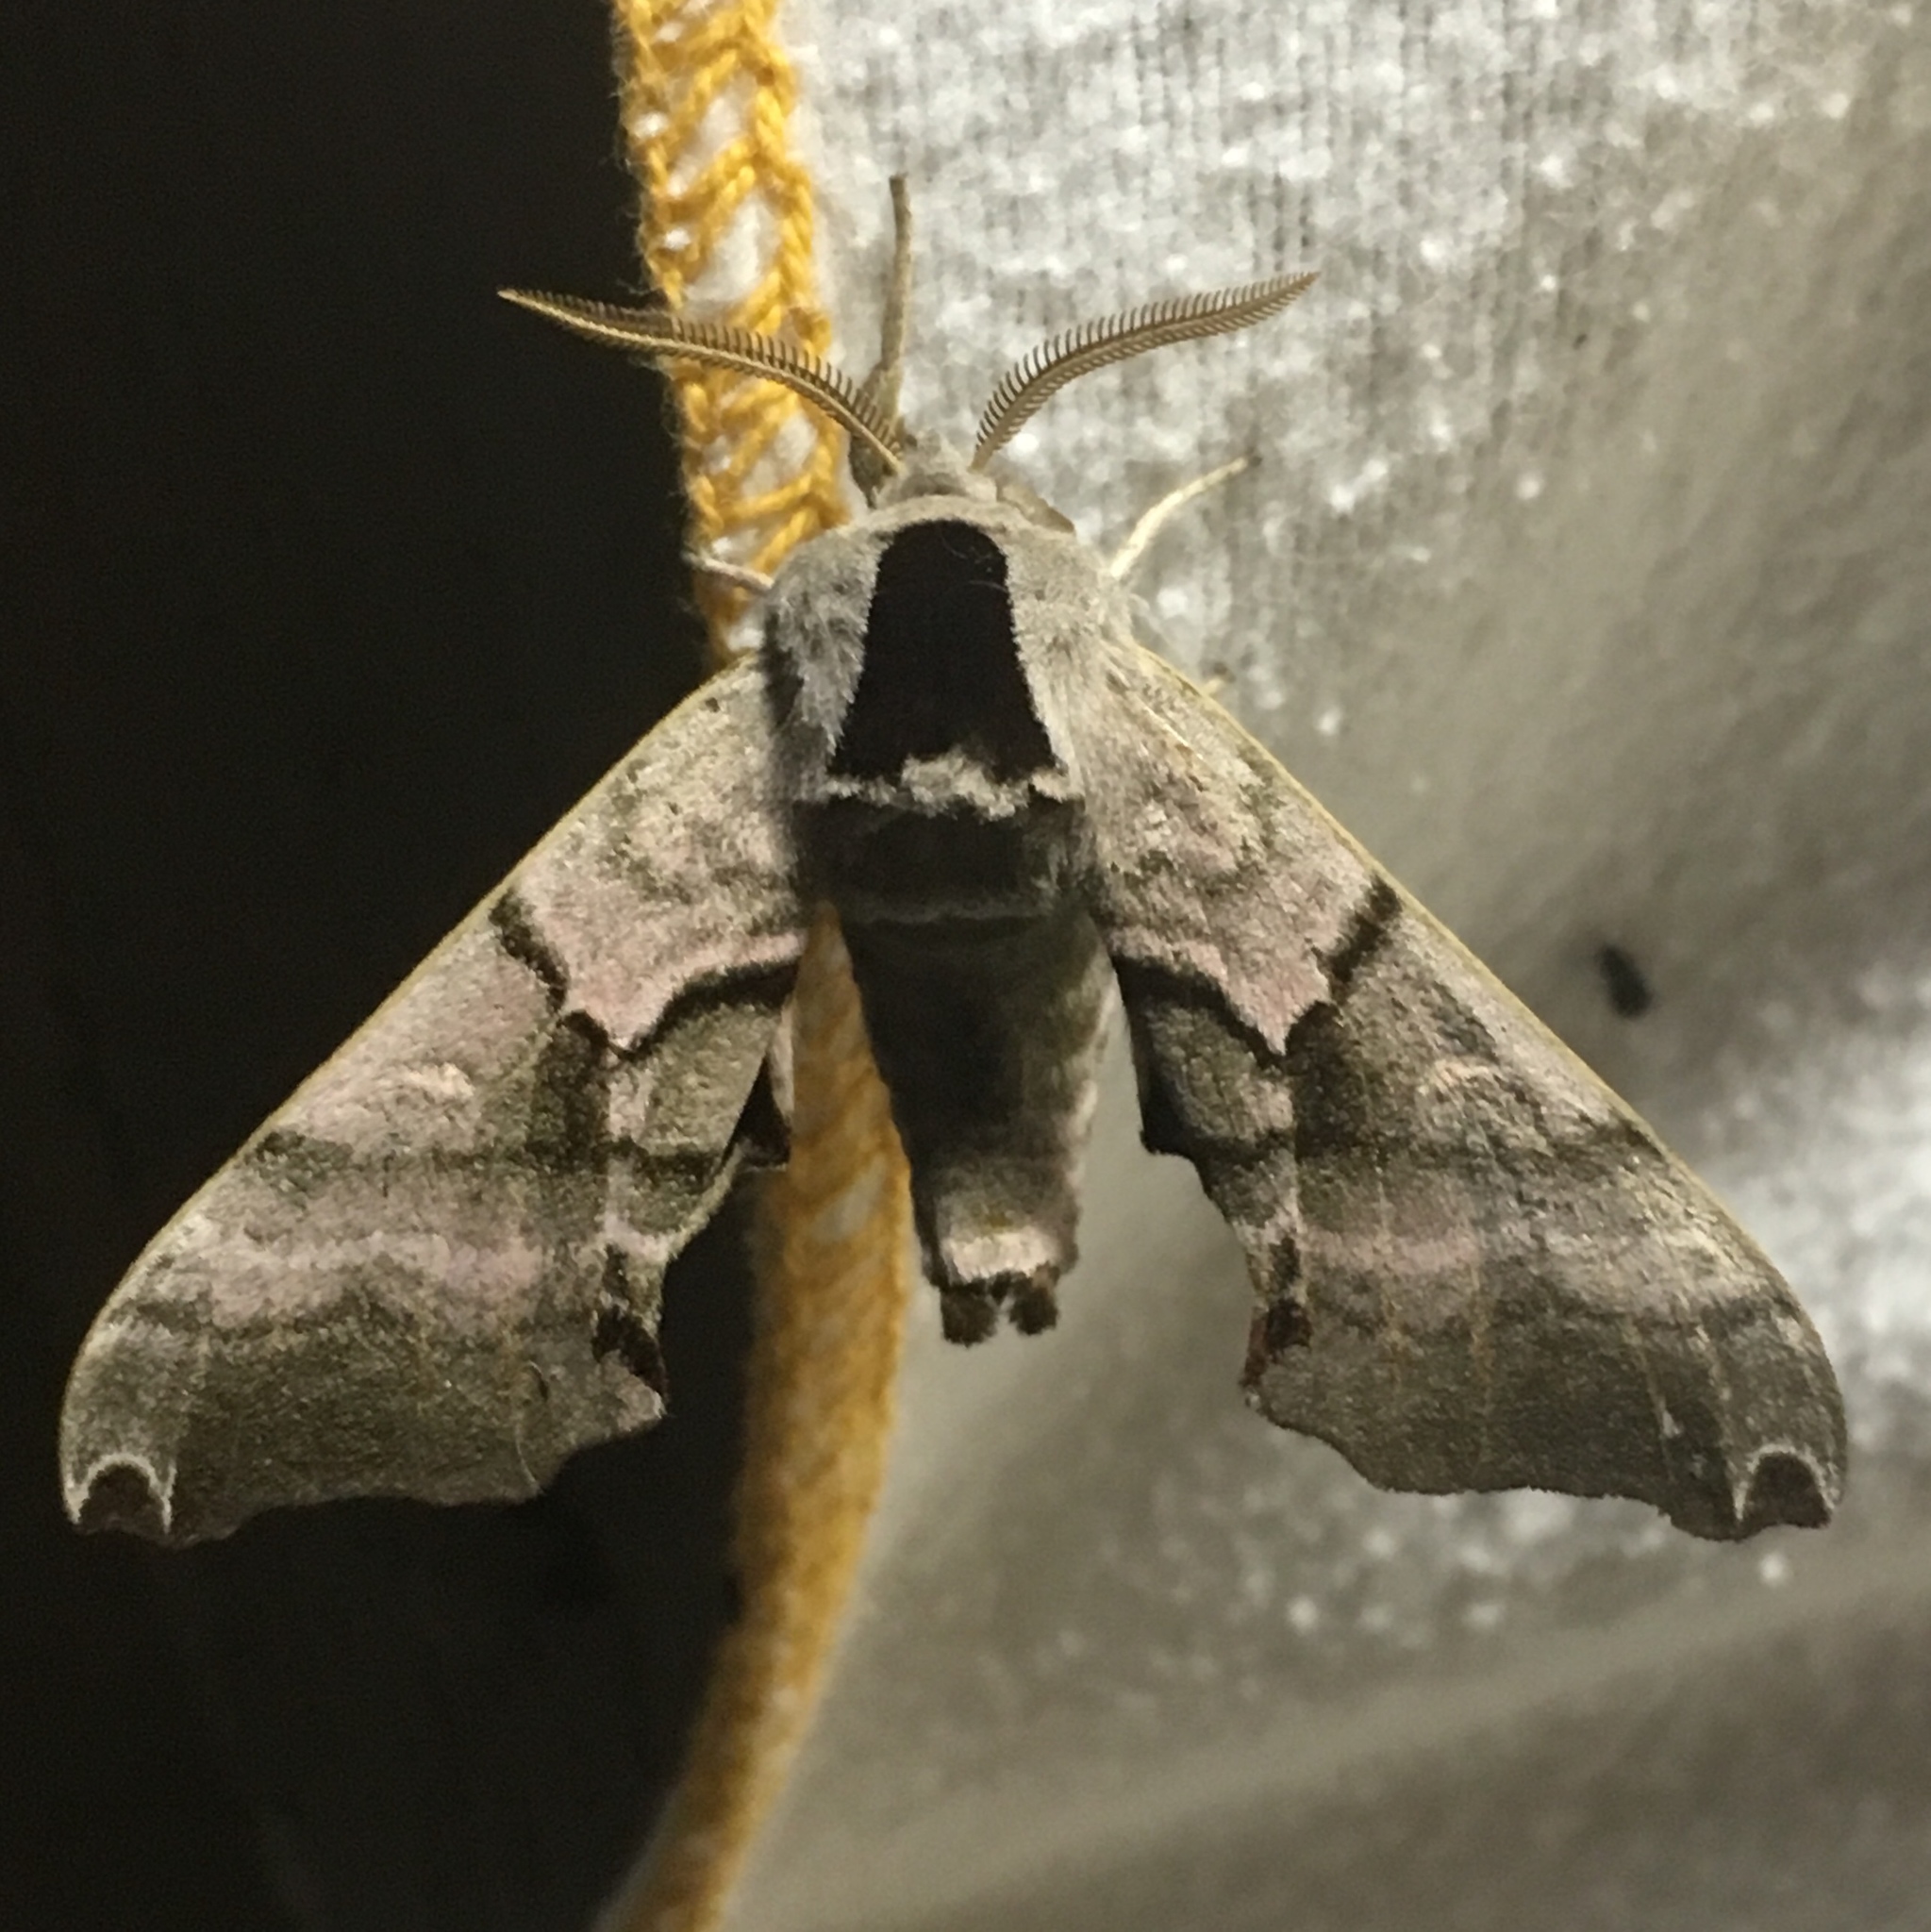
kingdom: Animalia
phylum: Arthropoda
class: Insecta
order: Lepidoptera
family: Sphingidae
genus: Smerinthus
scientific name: Smerinthus jamaicensis
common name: Twin spotted sphinx
